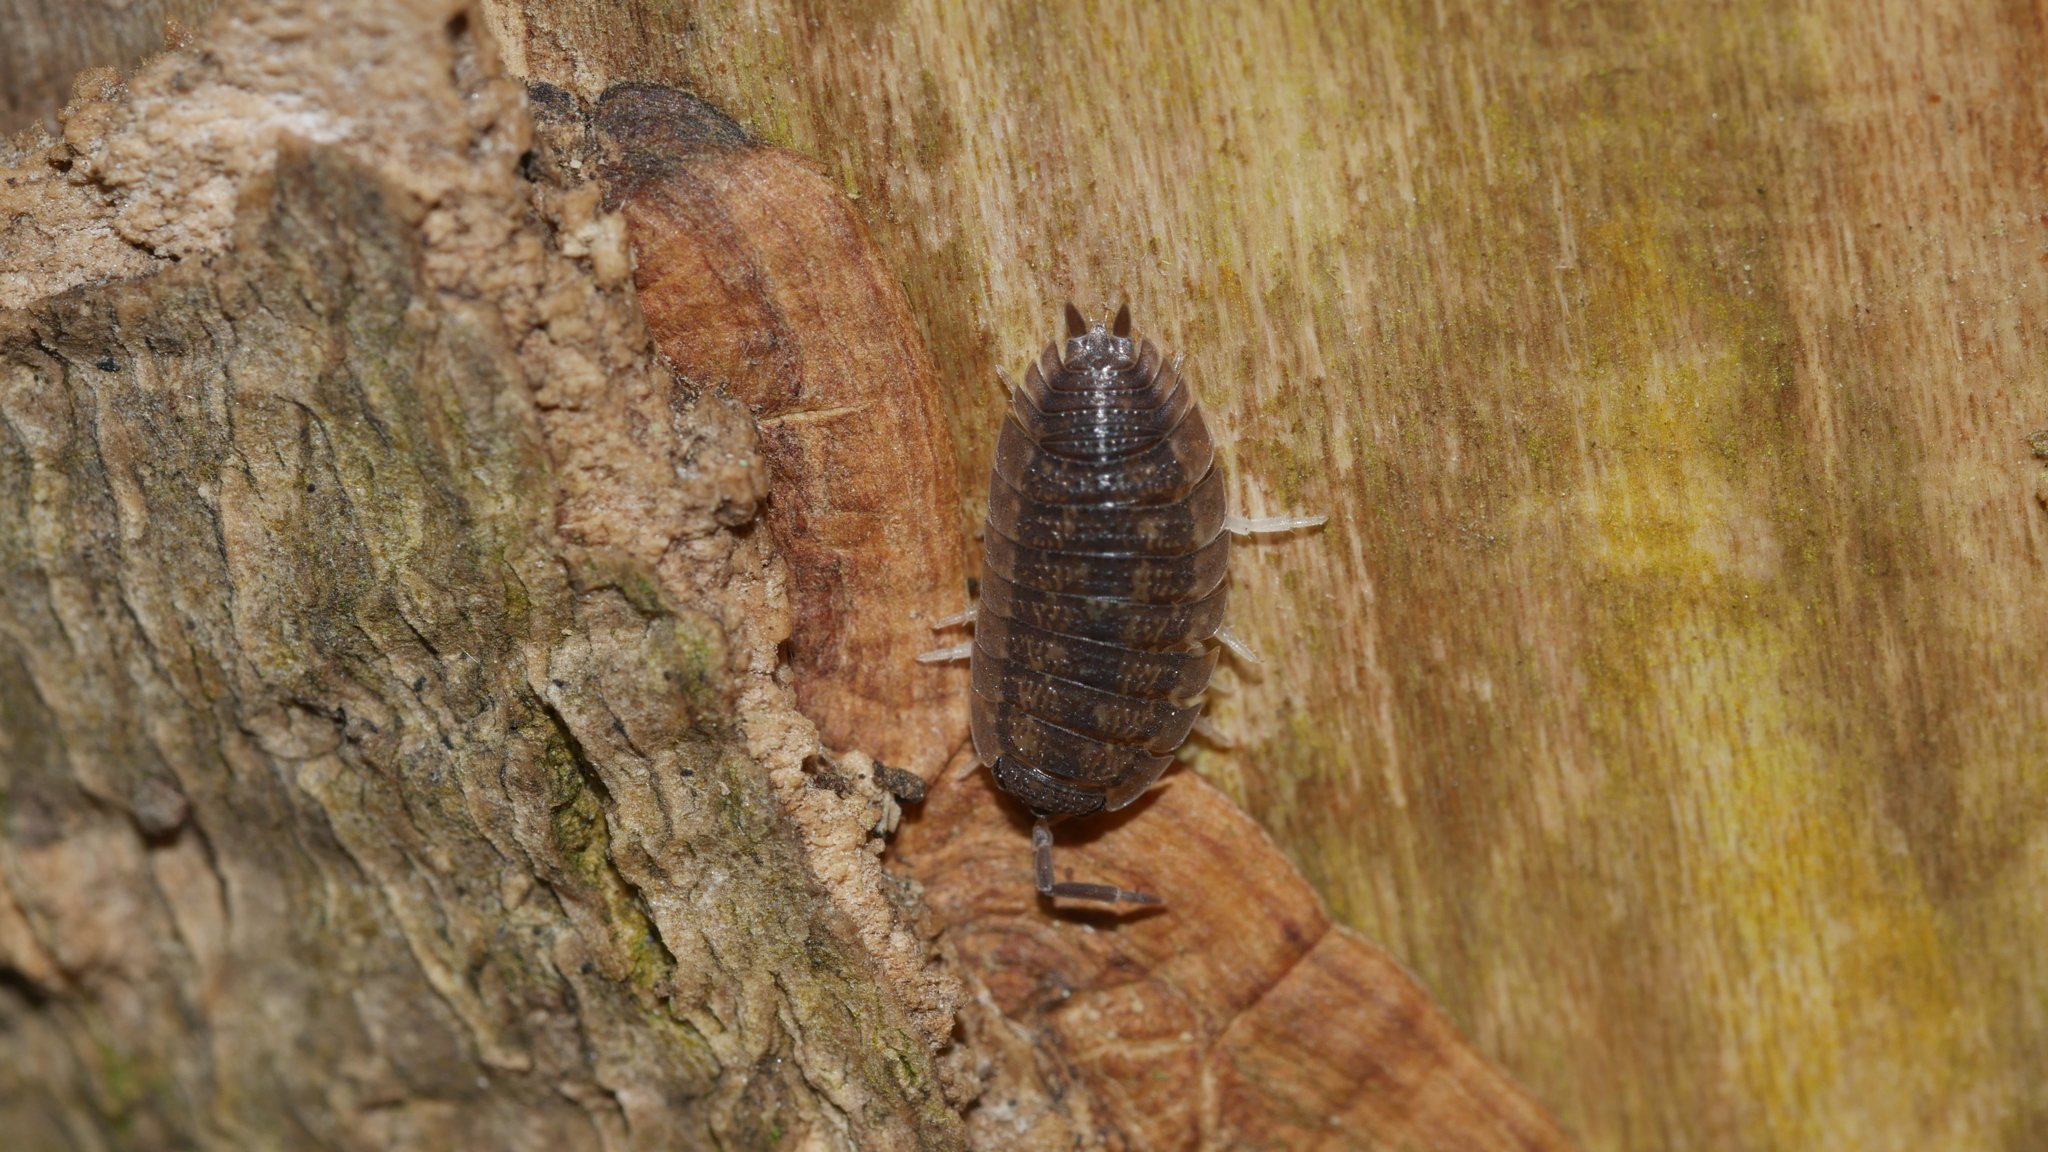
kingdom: Animalia
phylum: Arthropoda
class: Malacostraca
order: Isopoda
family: Porcellionidae
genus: Porcellio
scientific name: Porcellio scaber
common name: Common rough woodlouse
